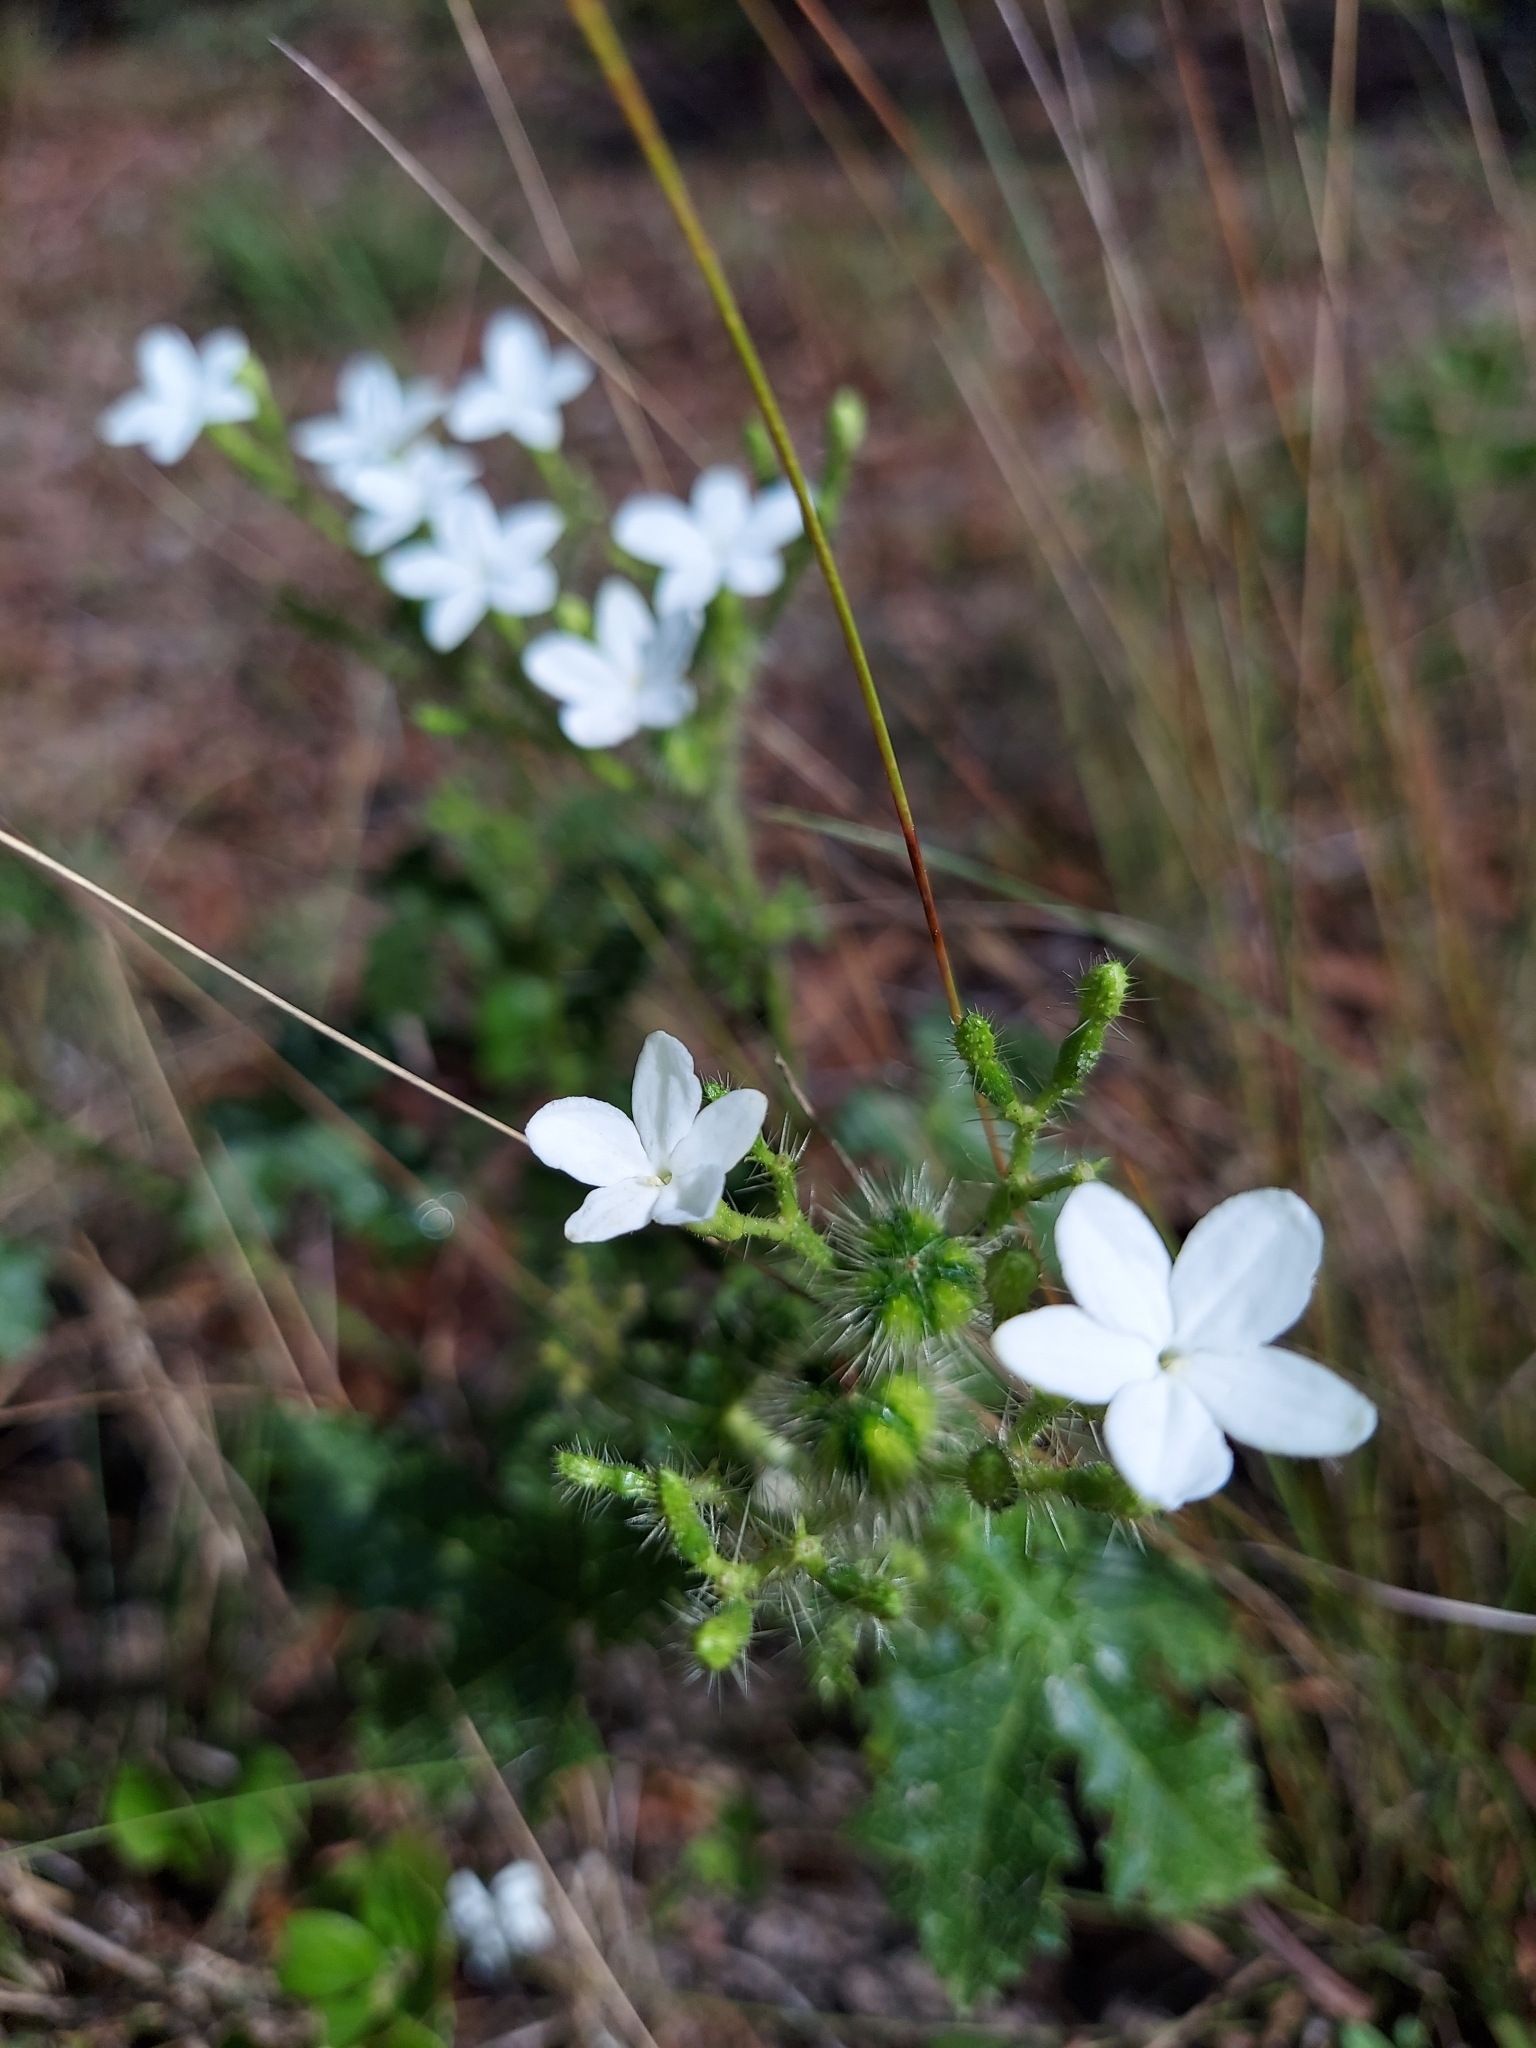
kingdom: Plantae
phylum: Tracheophyta
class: Magnoliopsida
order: Malpighiales
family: Euphorbiaceae
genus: Cnidoscolus
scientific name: Cnidoscolus stimulosus
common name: Bull-nettle
